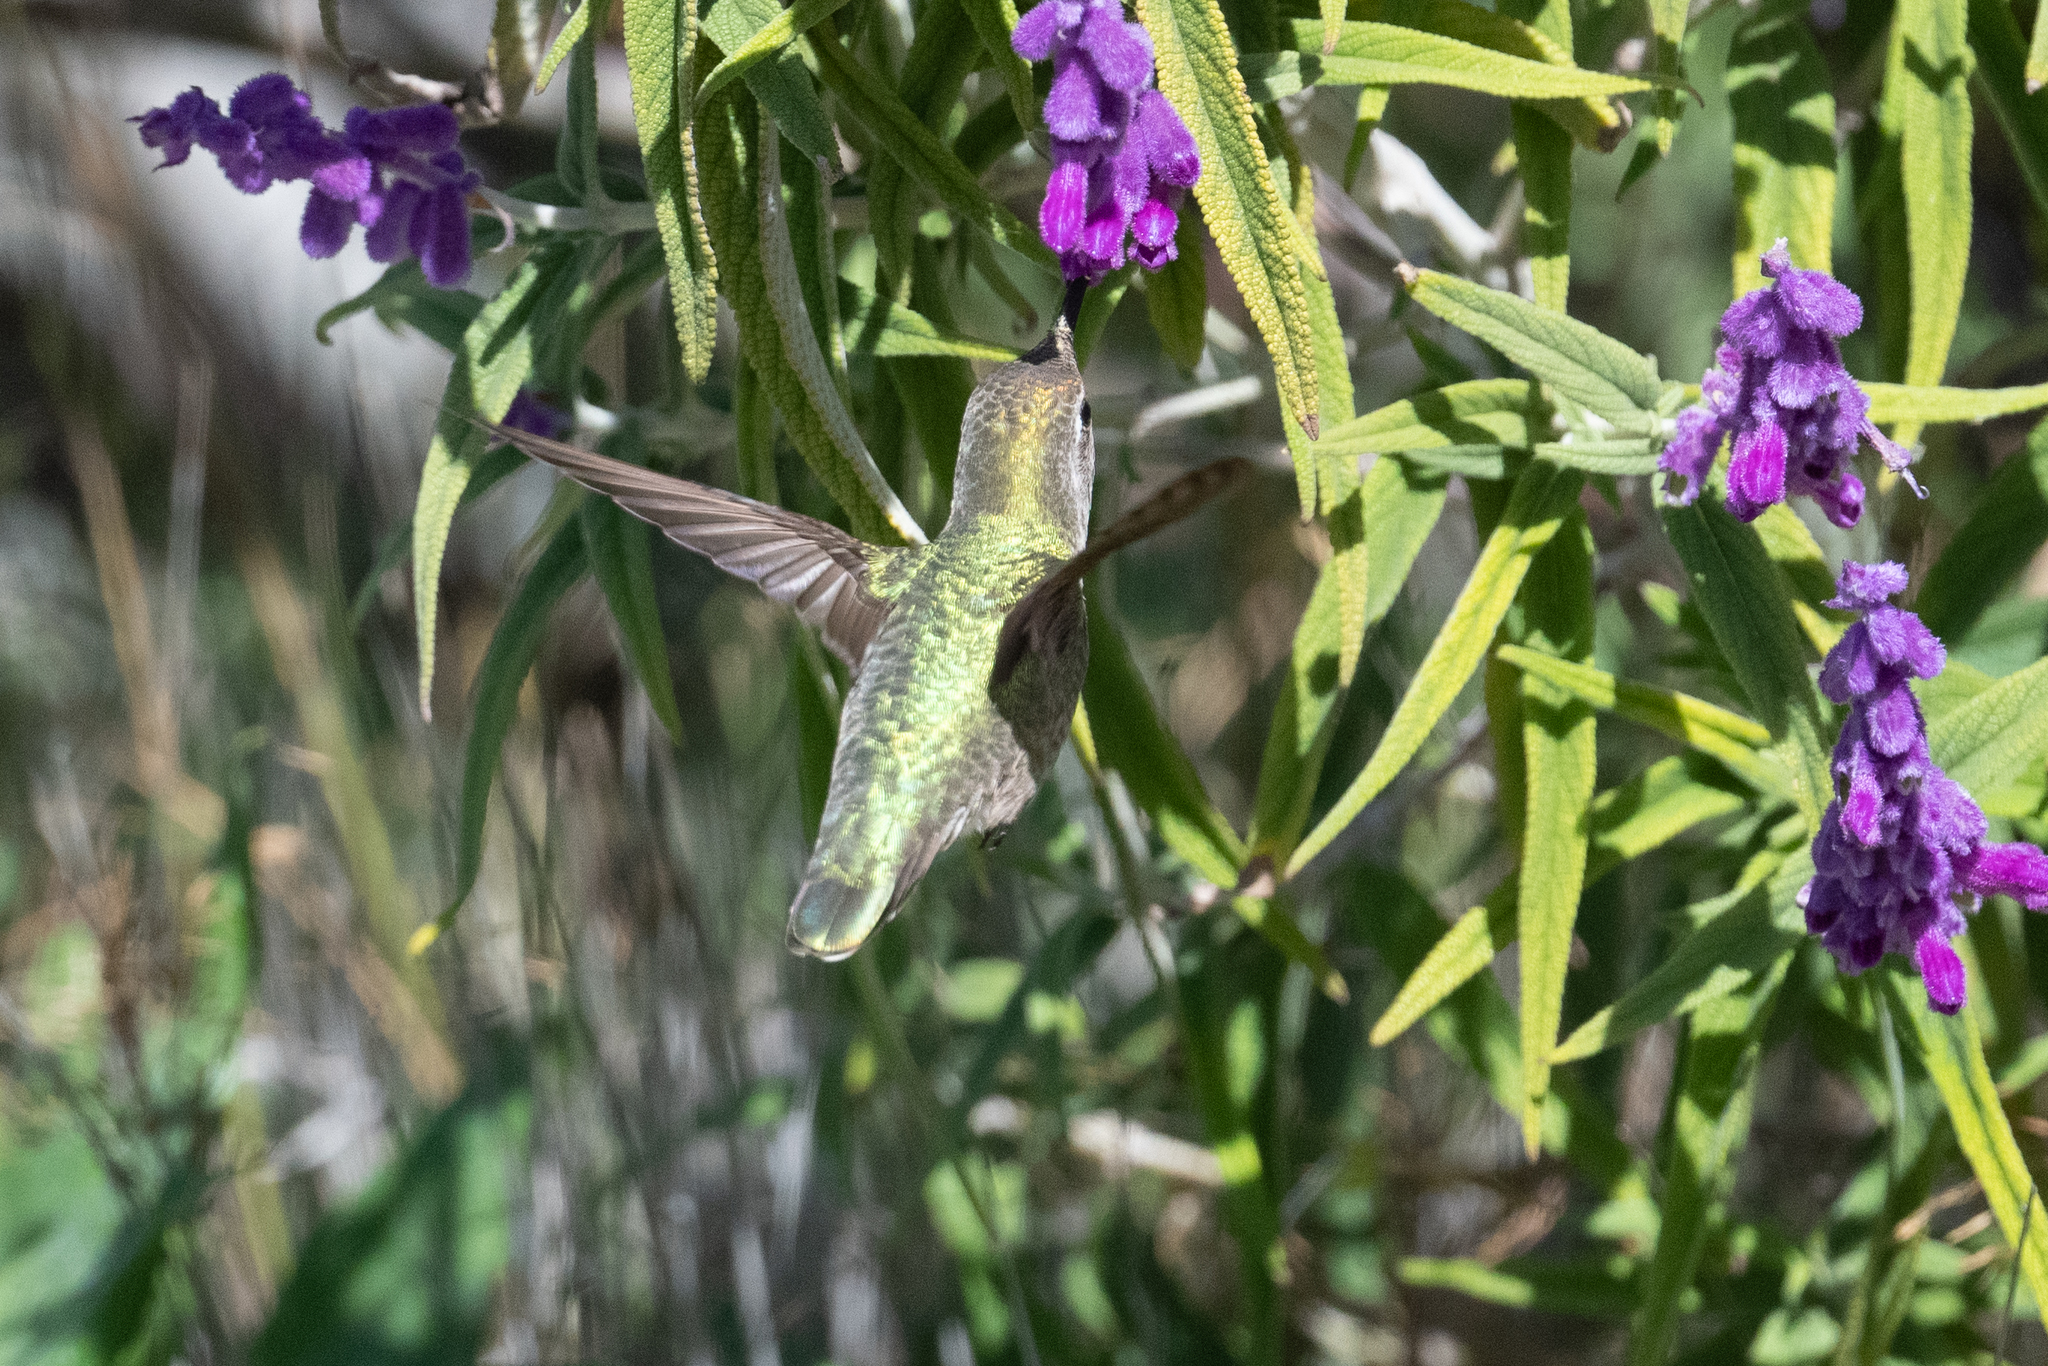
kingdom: Animalia
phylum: Chordata
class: Aves
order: Apodiformes
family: Trochilidae
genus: Calypte
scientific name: Calypte anna
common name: Anna's hummingbird
